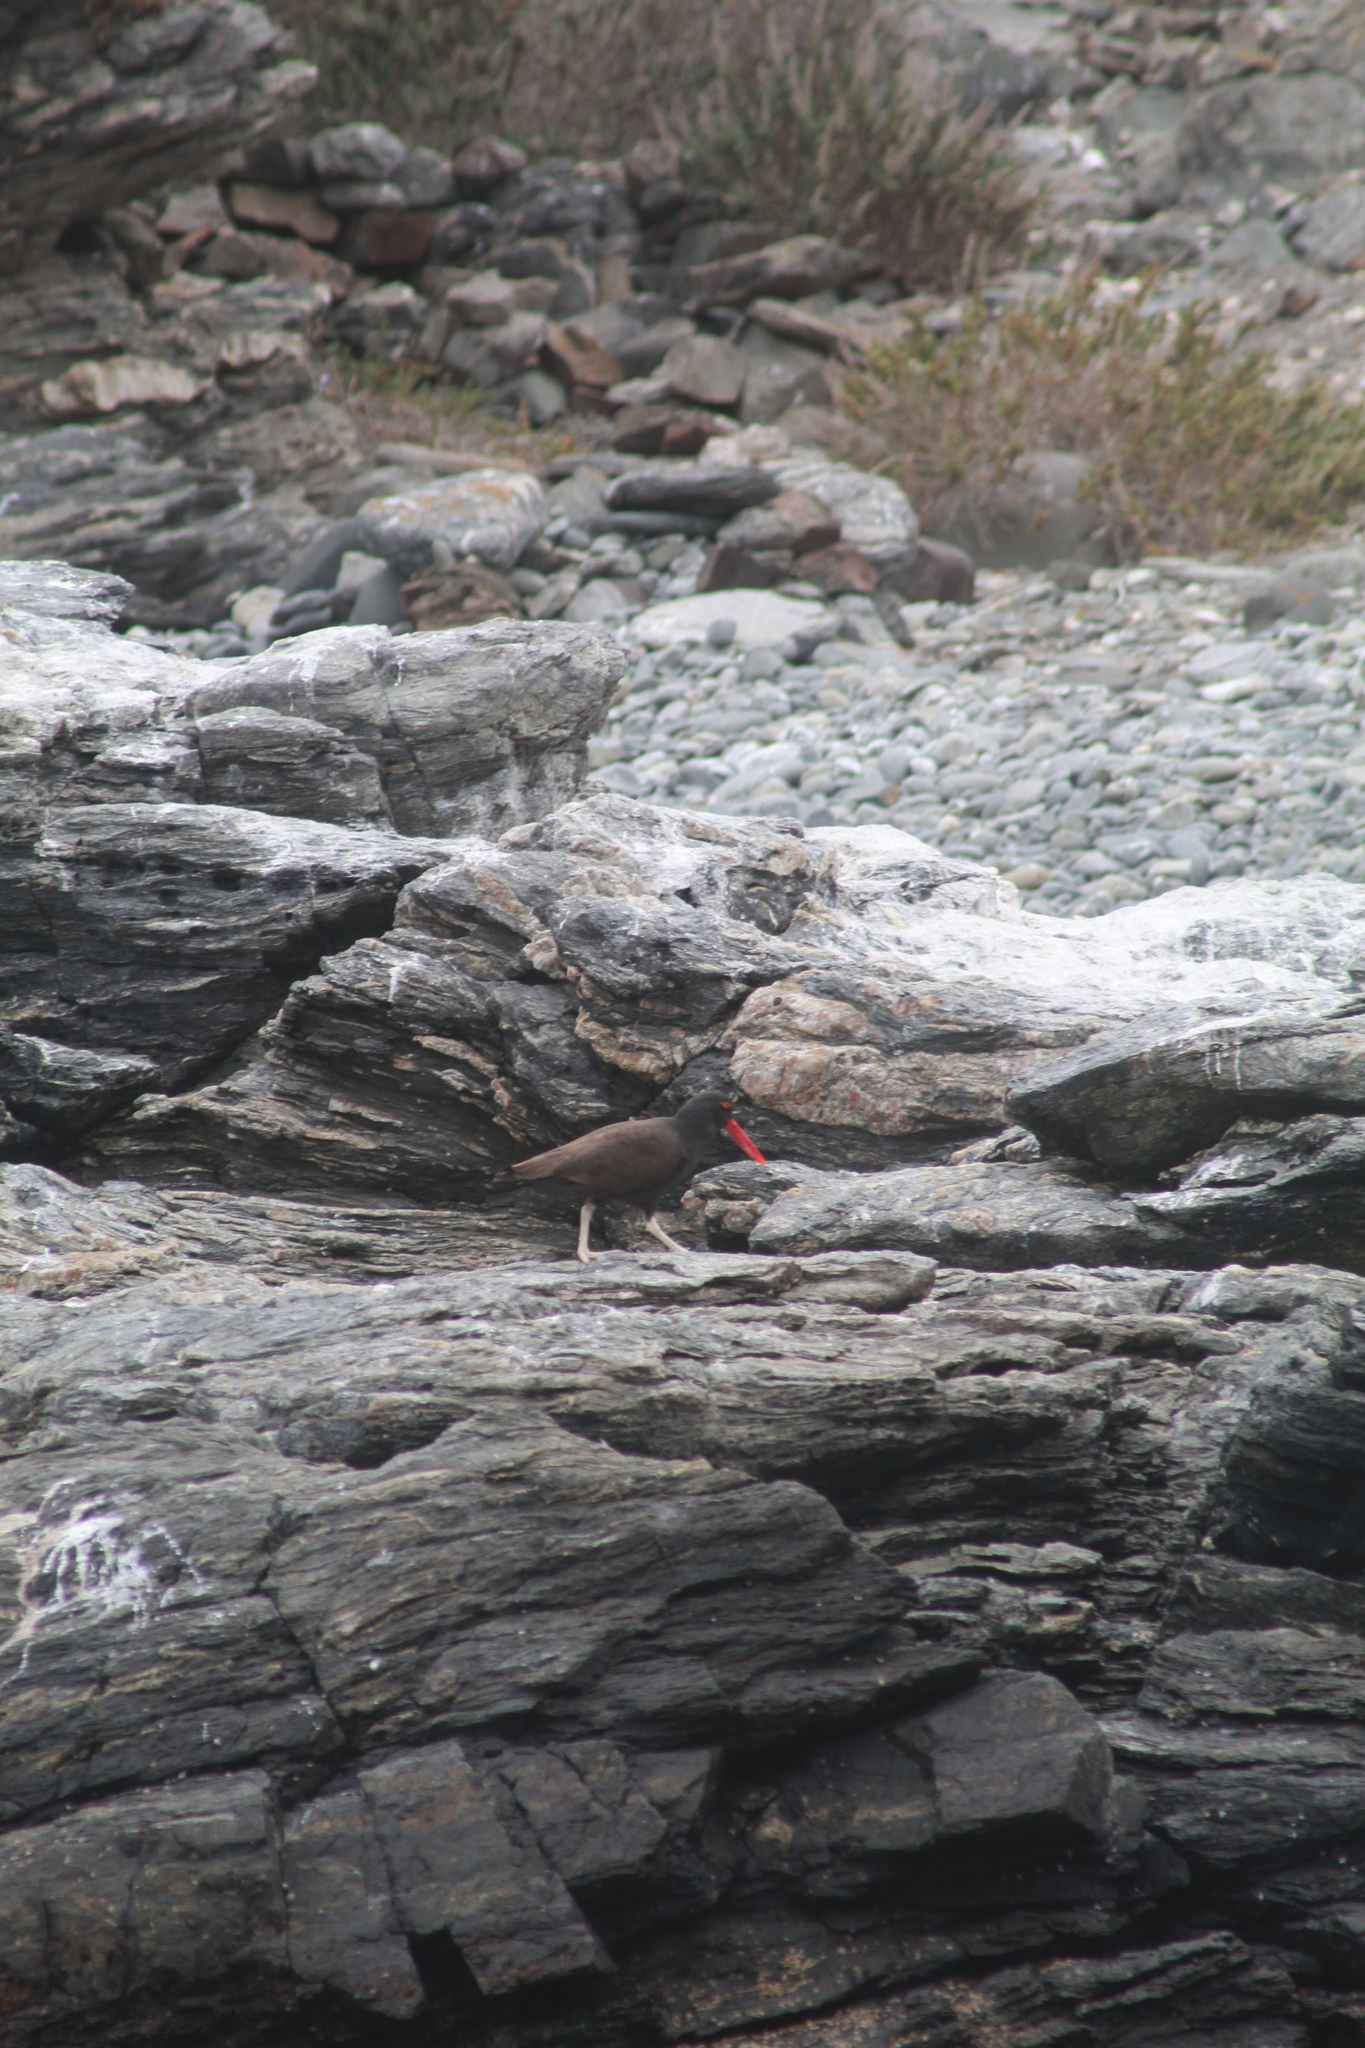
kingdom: Animalia
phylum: Chordata
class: Aves
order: Charadriiformes
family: Haematopodidae
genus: Haematopus
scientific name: Haematopus ater
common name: Blackish oystercatcher
